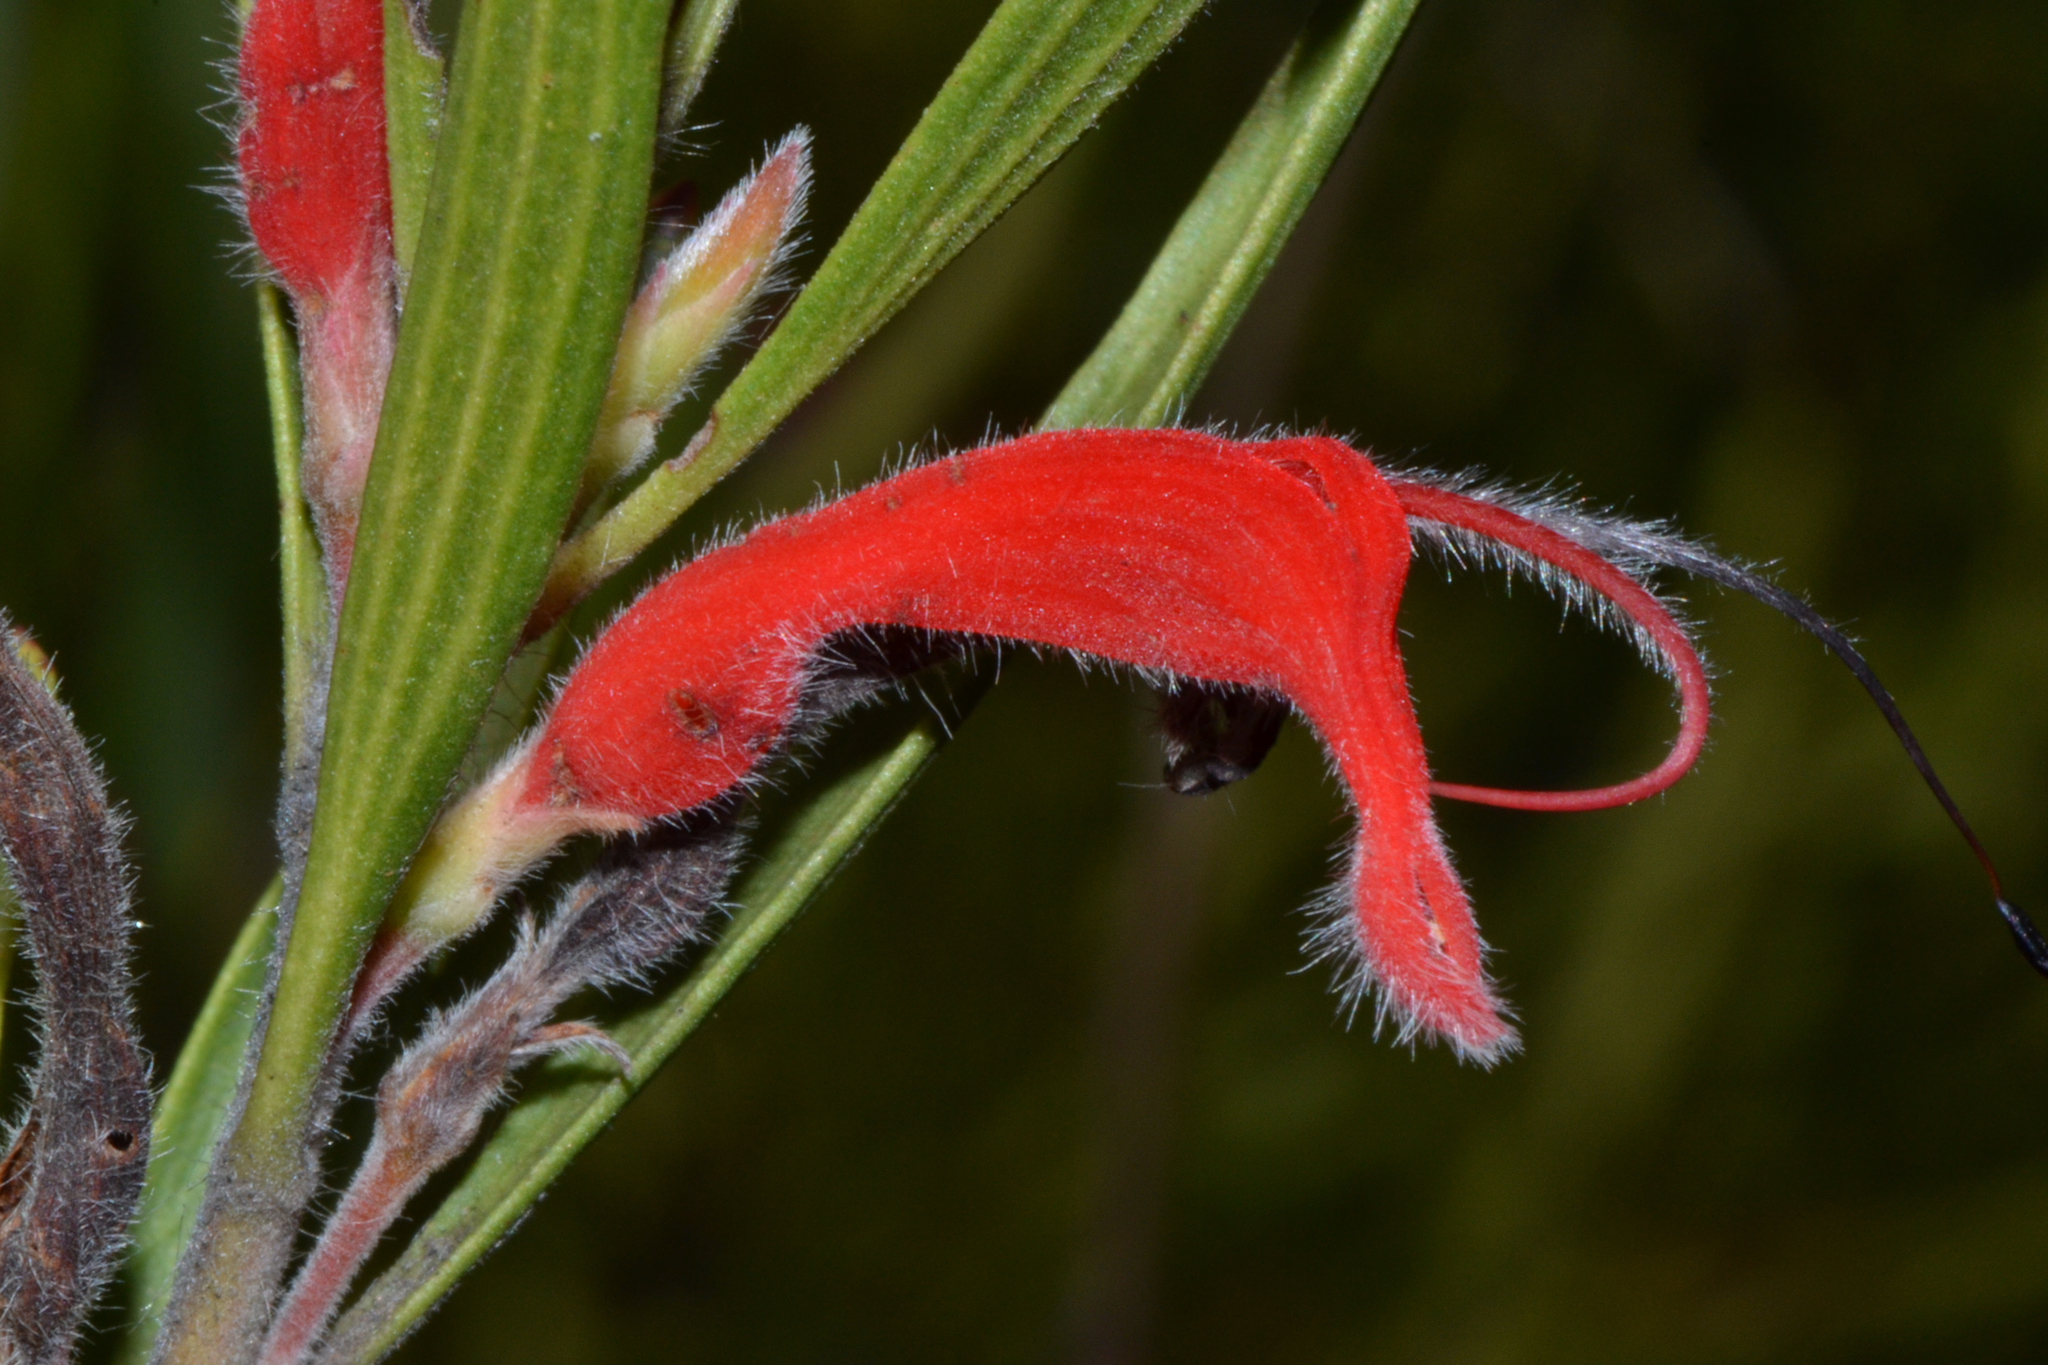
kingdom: Plantae
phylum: Tracheophyta
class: Magnoliopsida
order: Proteales
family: Proteaceae
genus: Adenanthos
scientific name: Adenanthos barbiger
